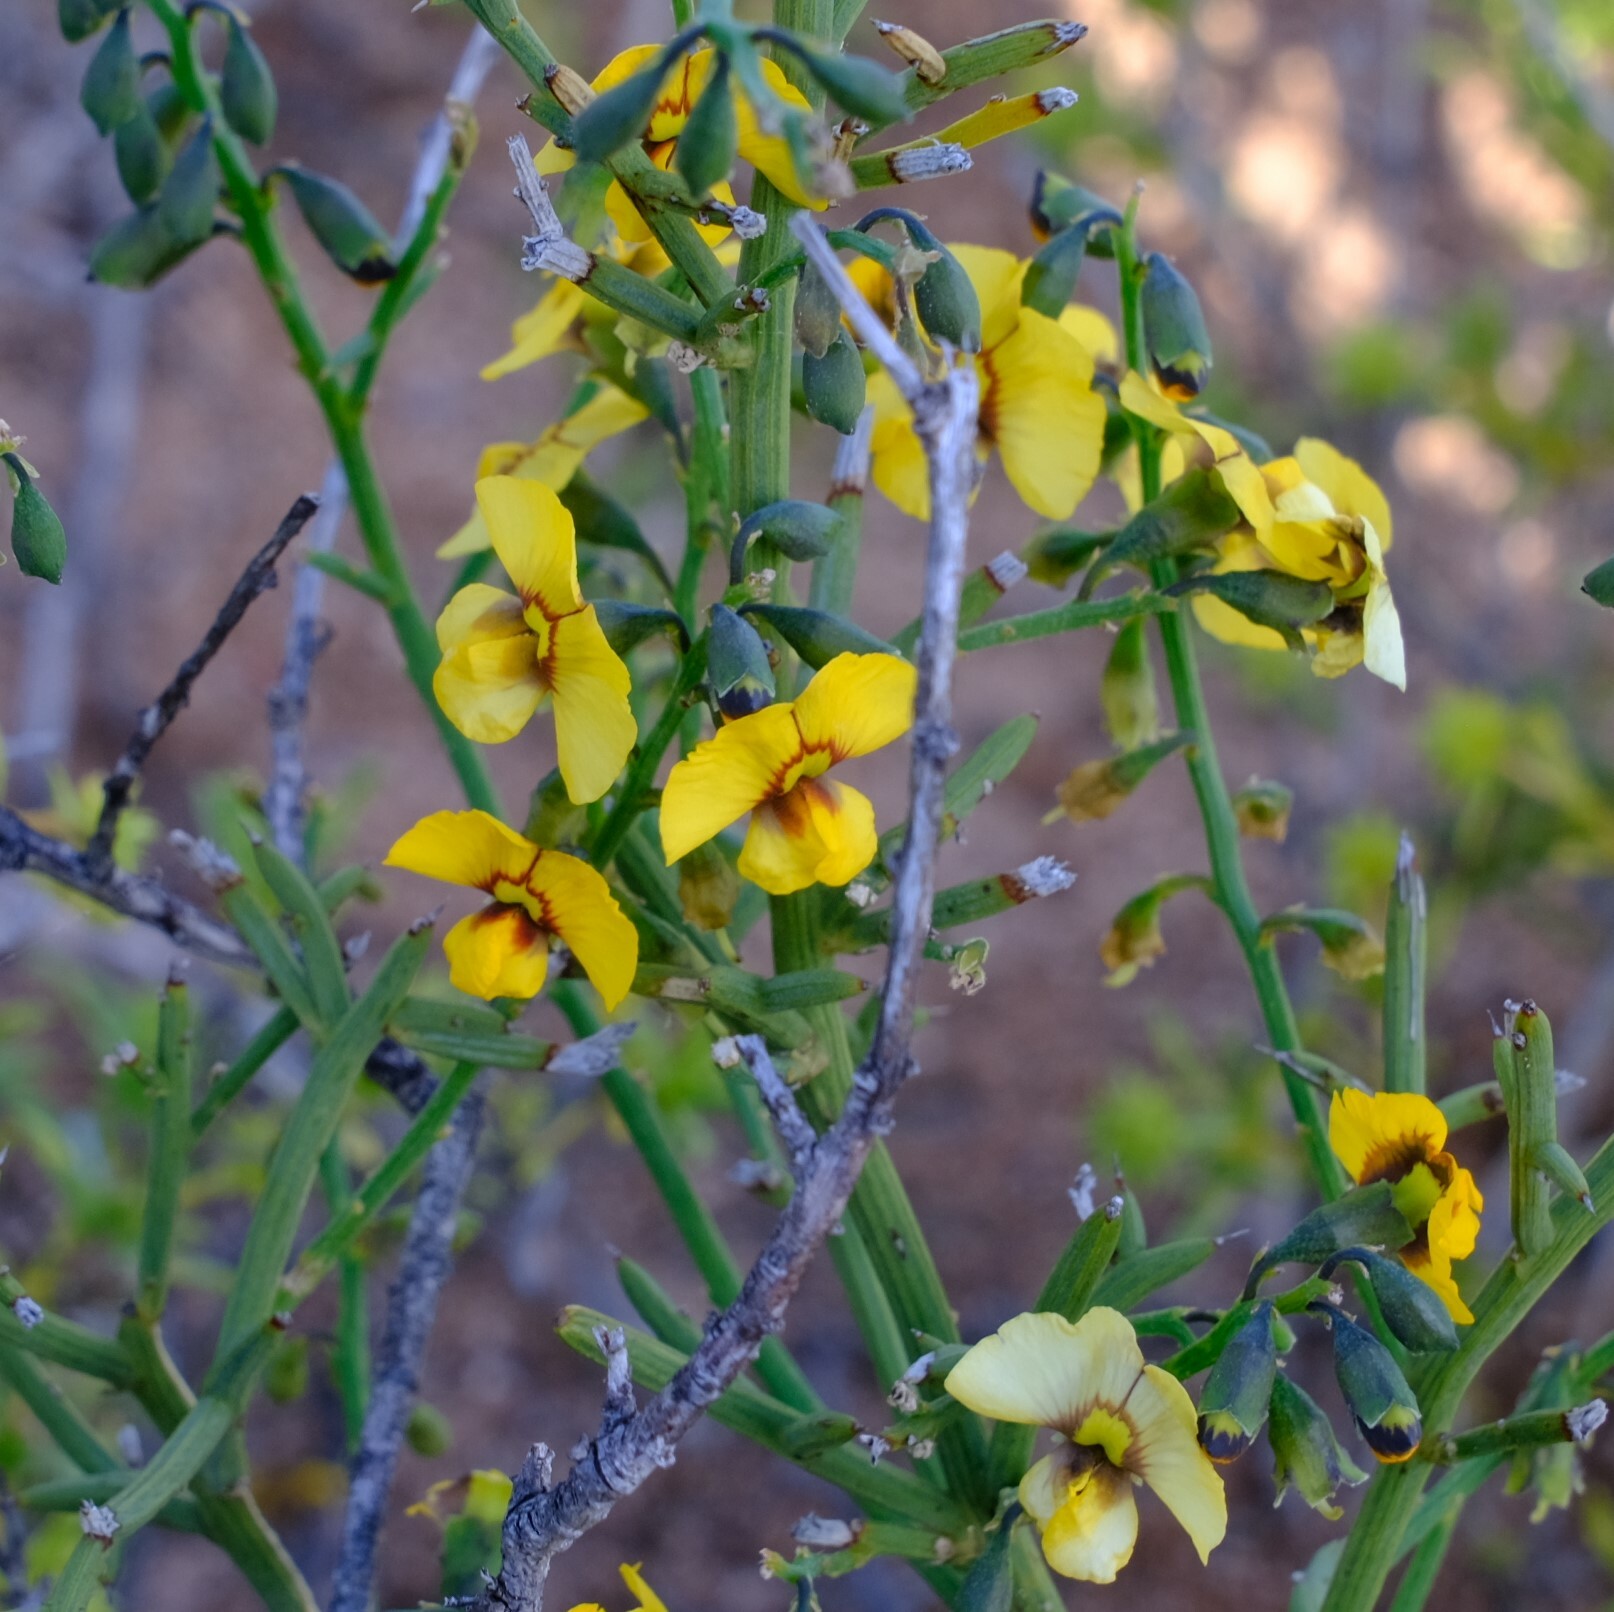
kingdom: Plantae
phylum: Tracheophyta
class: Magnoliopsida
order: Fabales
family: Fabaceae
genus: Mirbelia
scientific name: Mirbelia ramulosa
